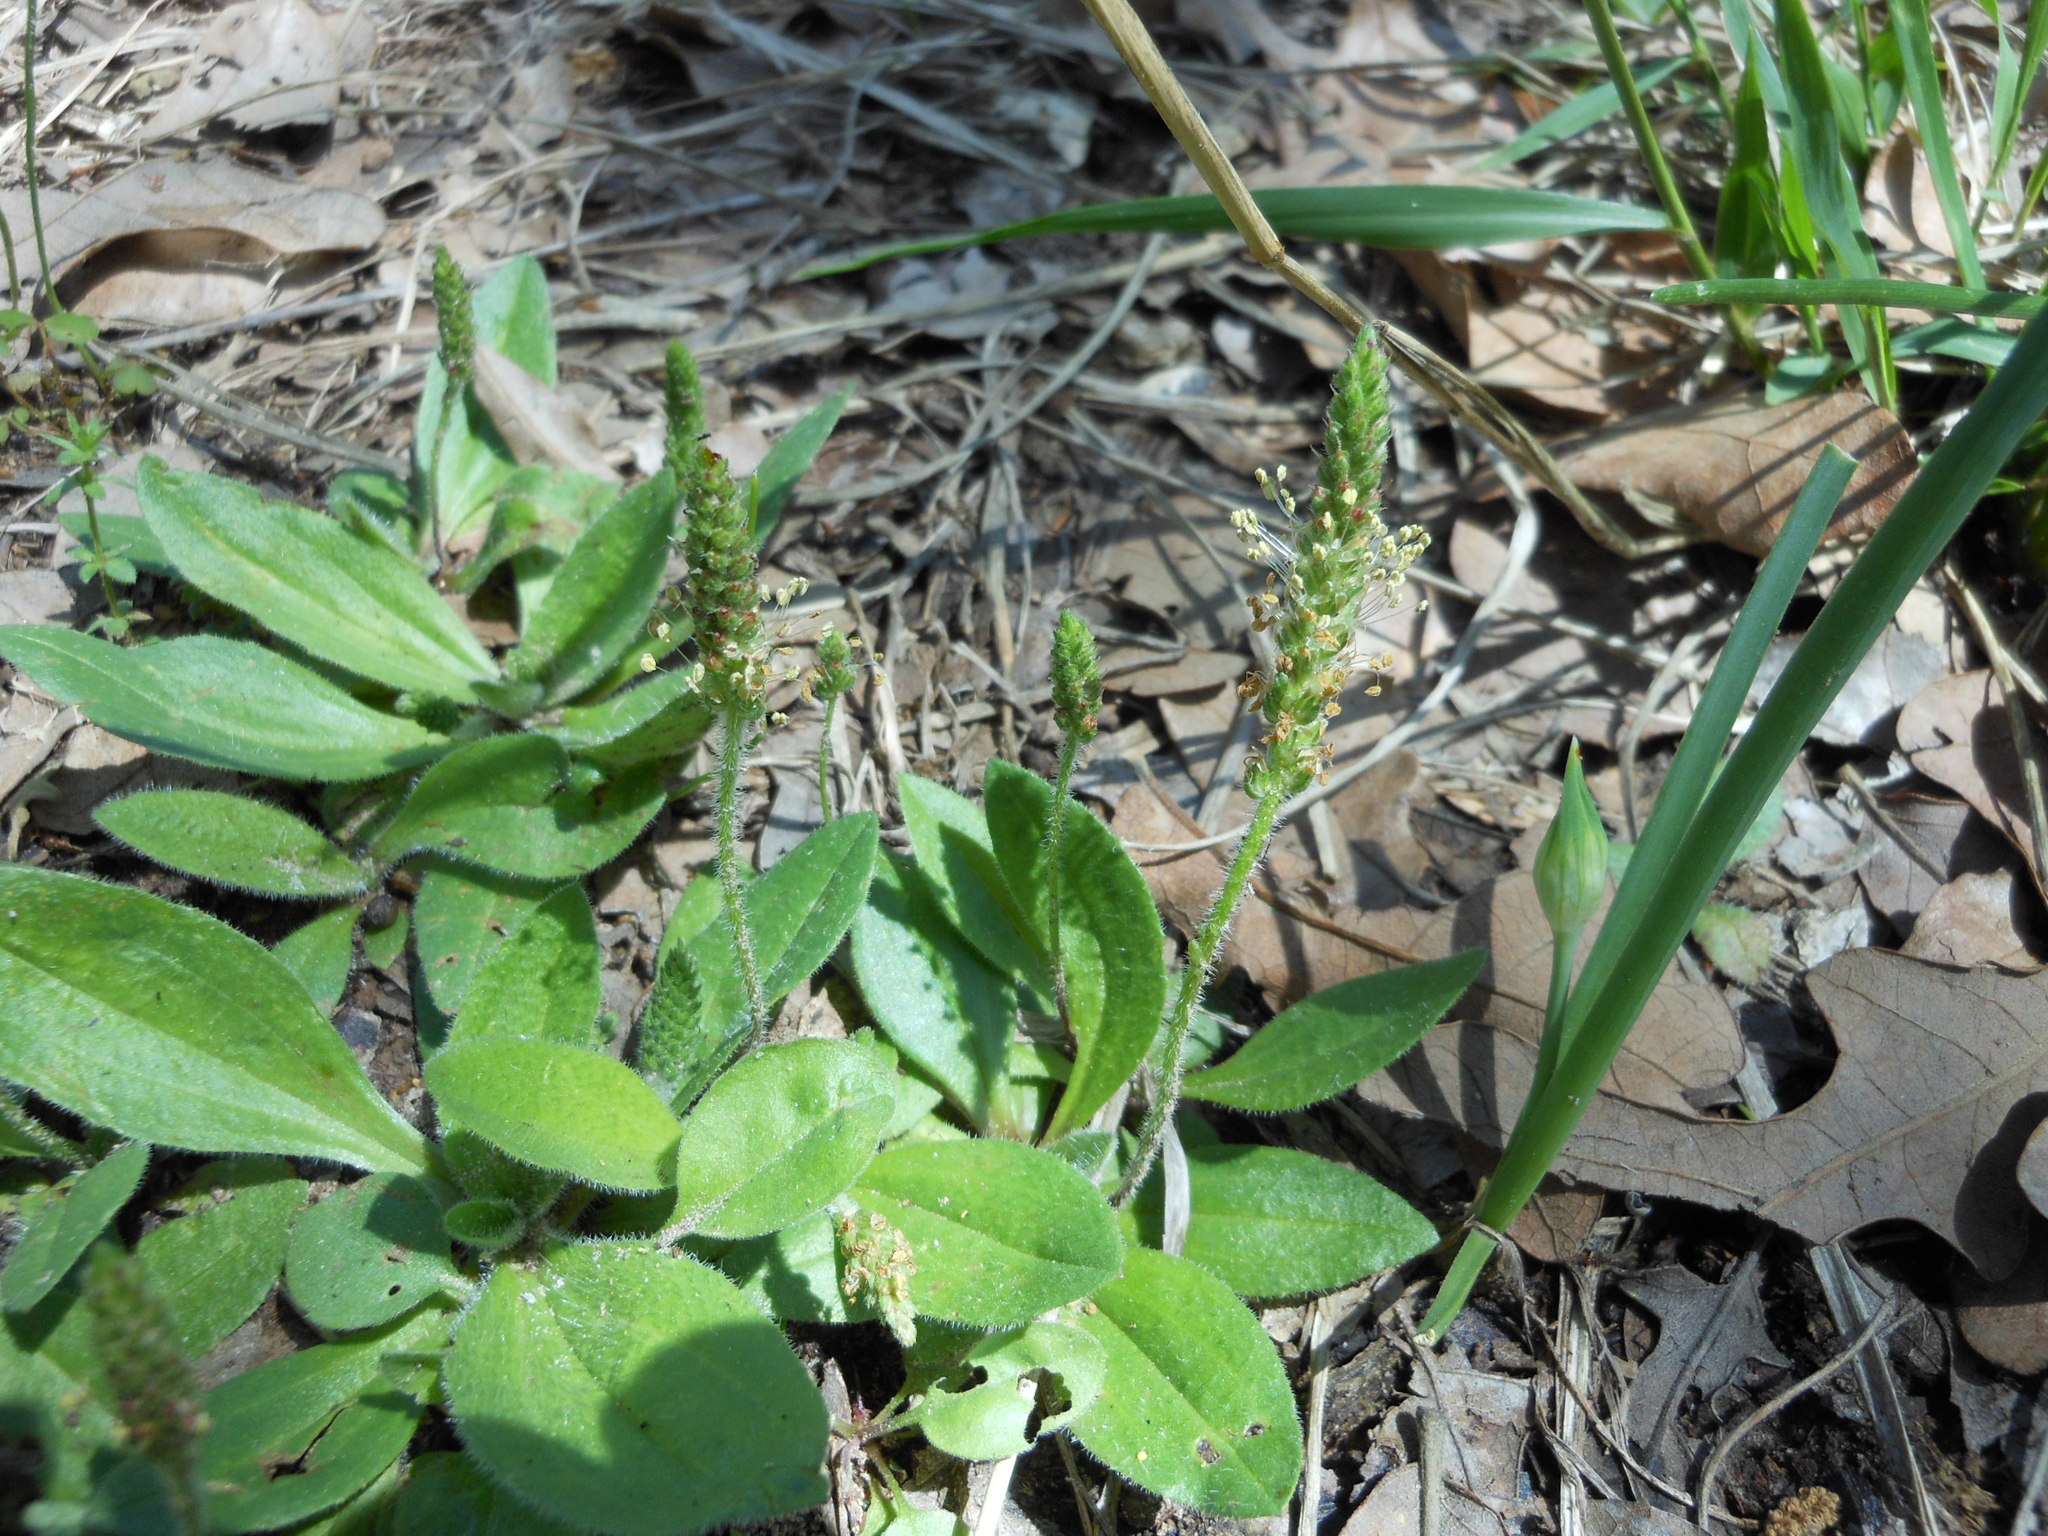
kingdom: Plantae
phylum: Tracheophyta
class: Magnoliopsida
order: Lamiales
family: Plantaginaceae
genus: Plantago
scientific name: Plantago virginica
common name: Hoary plantain
